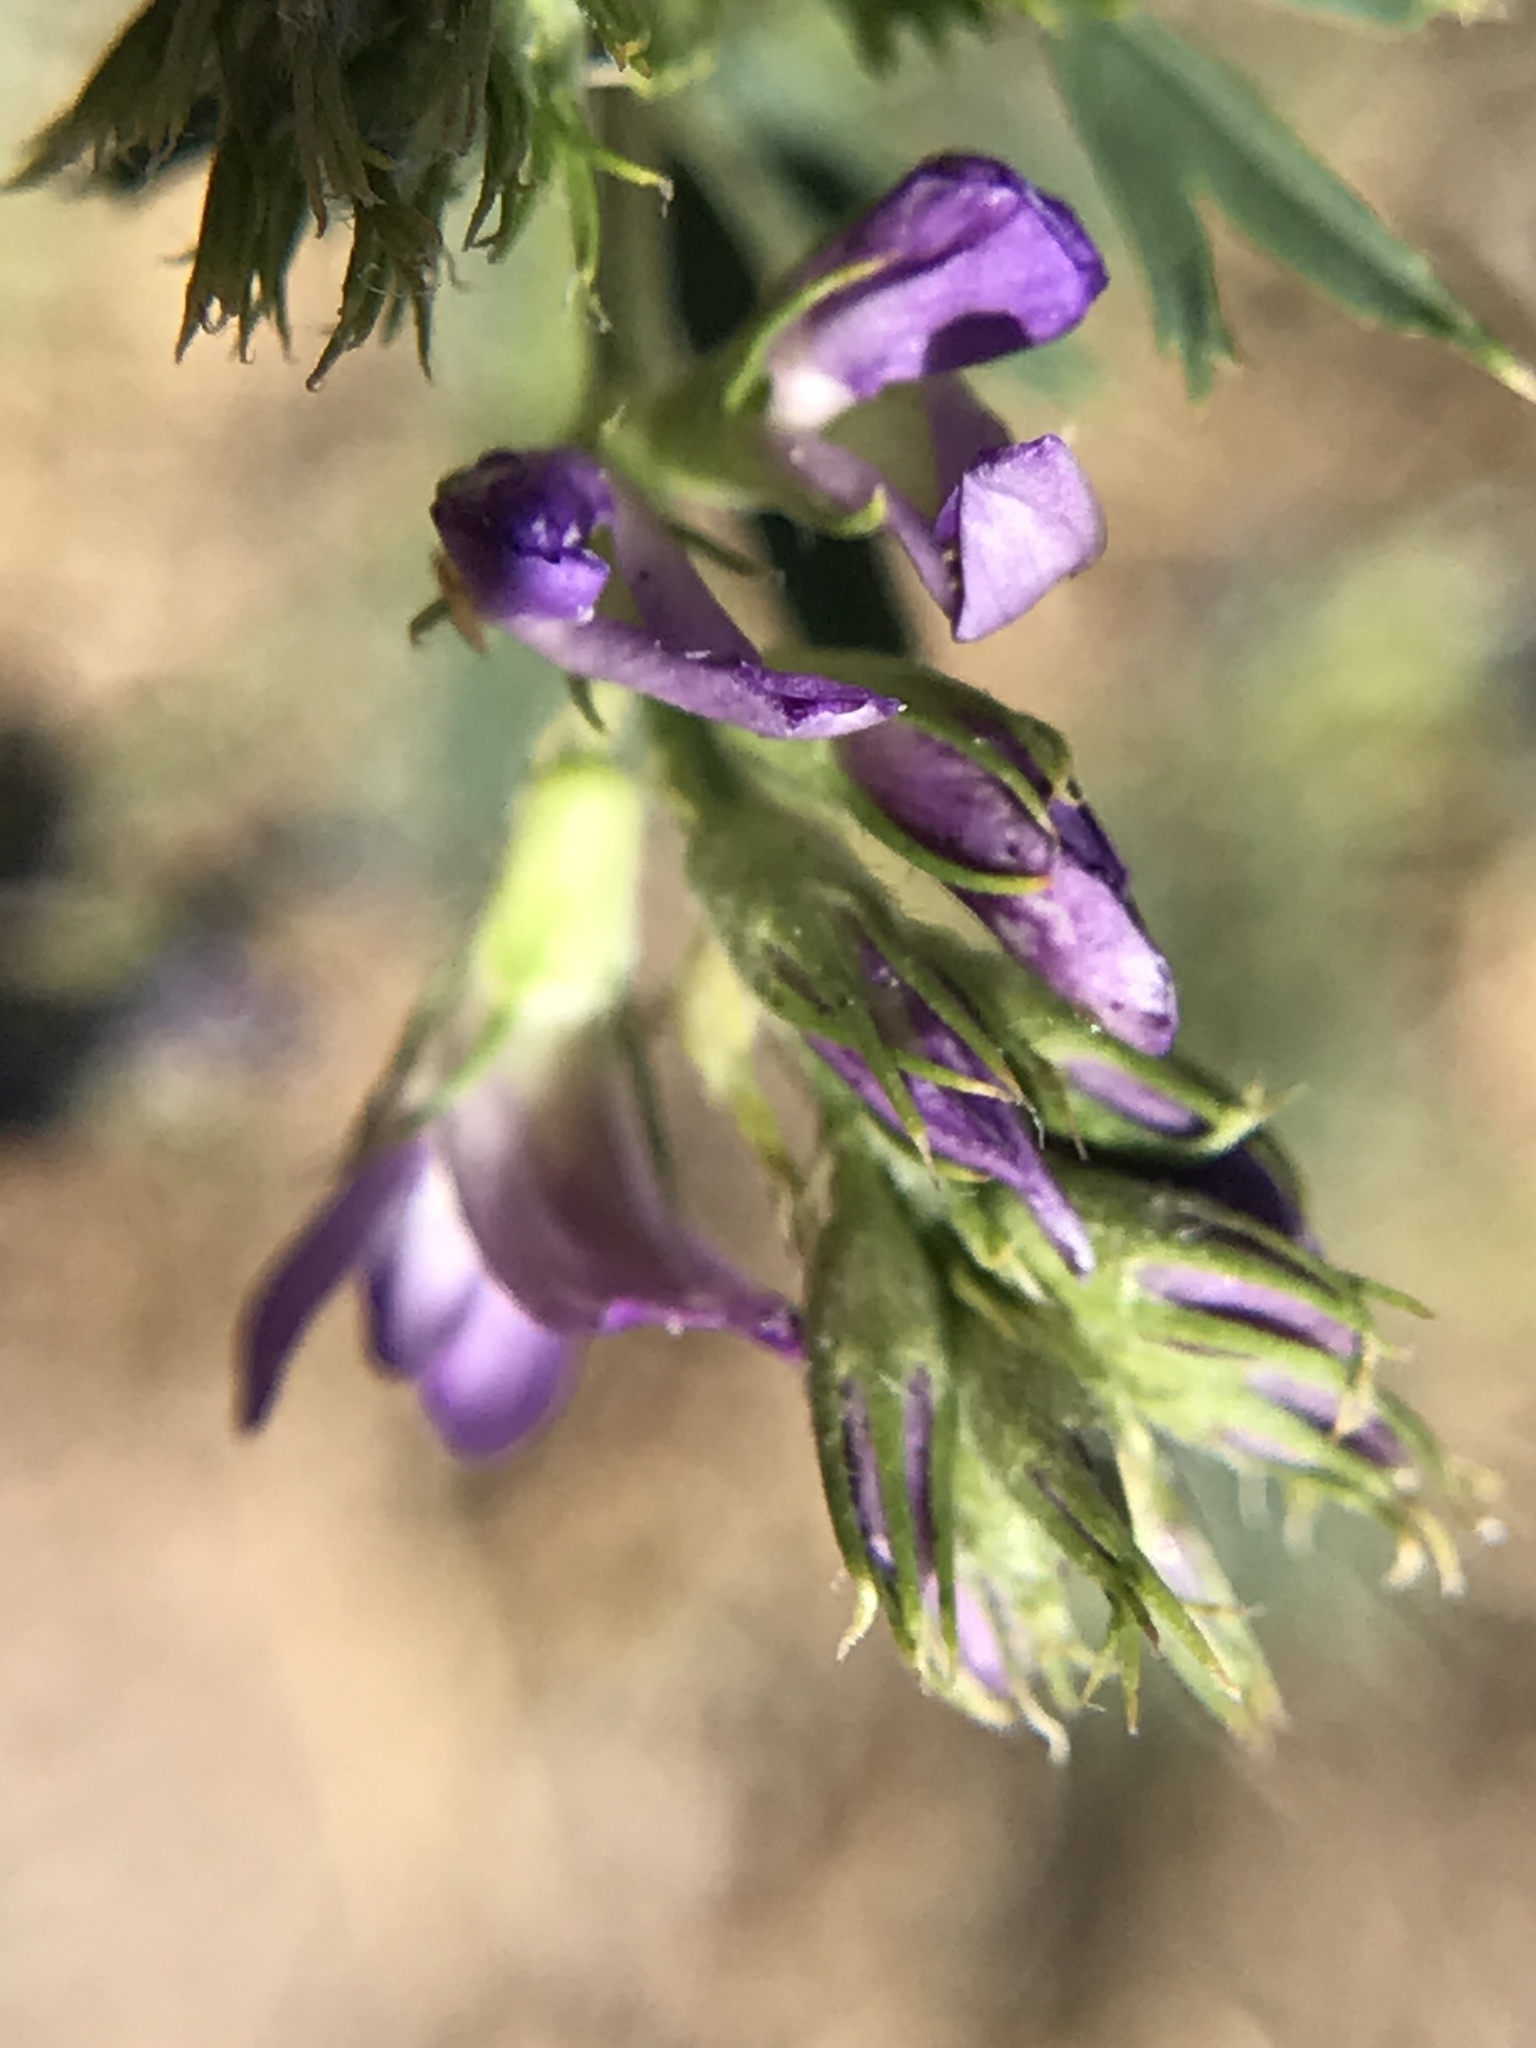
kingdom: Plantae
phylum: Tracheophyta
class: Magnoliopsida
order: Fabales
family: Fabaceae
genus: Medicago
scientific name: Medicago sativa
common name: Alfalfa
